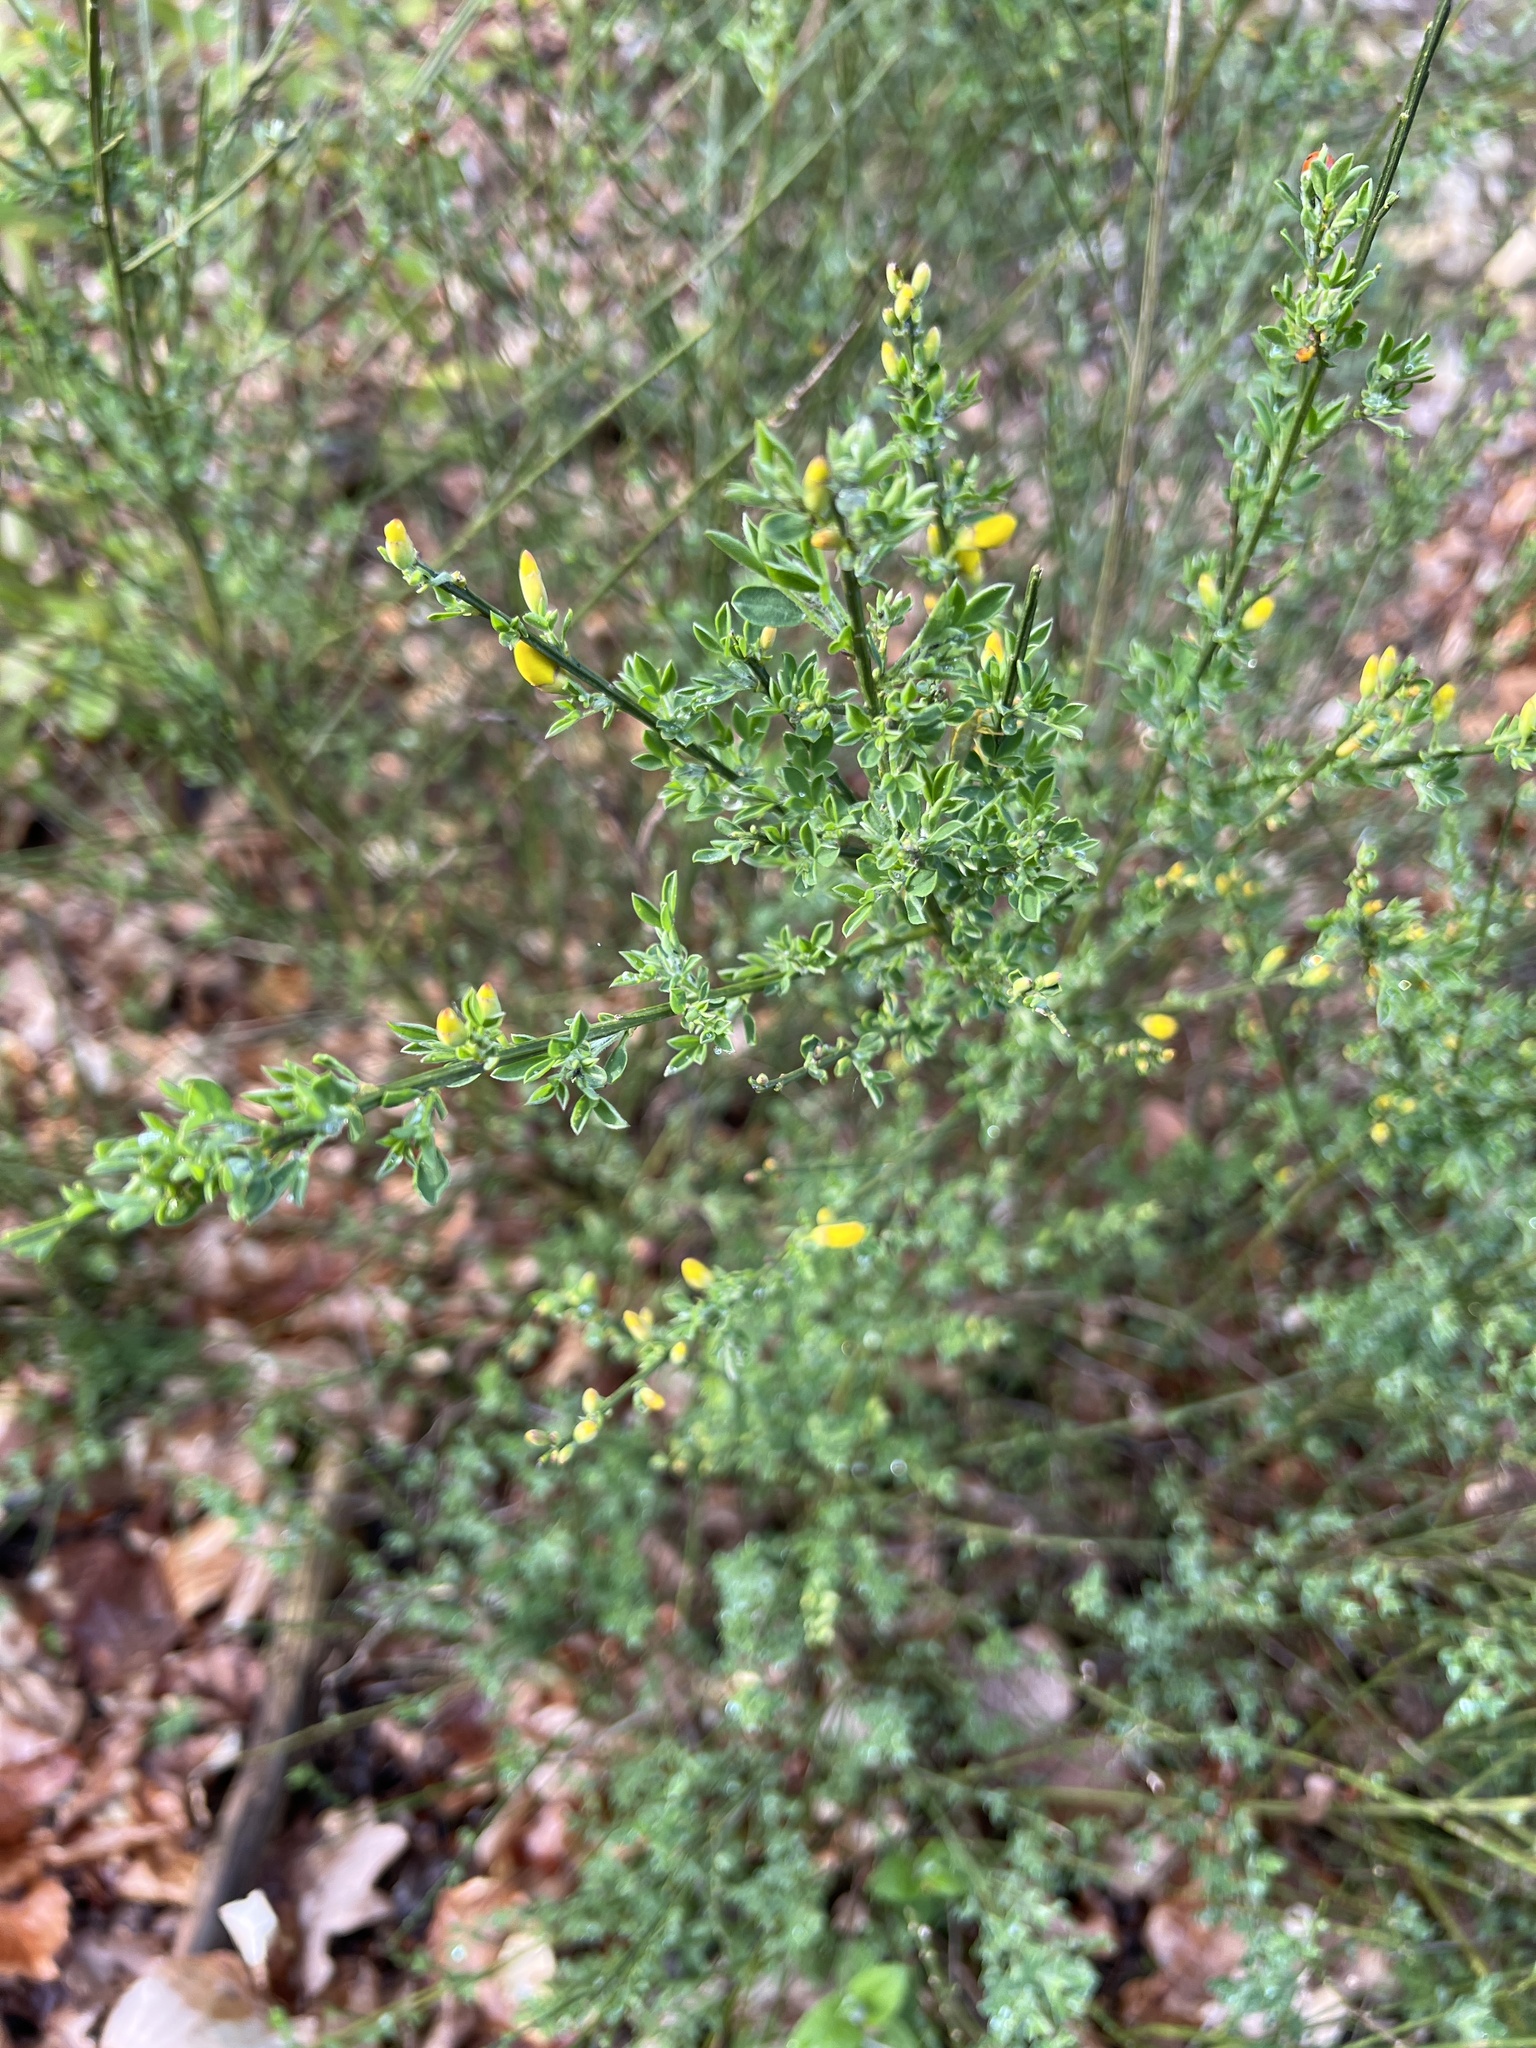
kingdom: Plantae
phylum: Tracheophyta
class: Magnoliopsida
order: Fabales
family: Fabaceae
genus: Cytisus
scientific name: Cytisus scoparius
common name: Scotch broom
